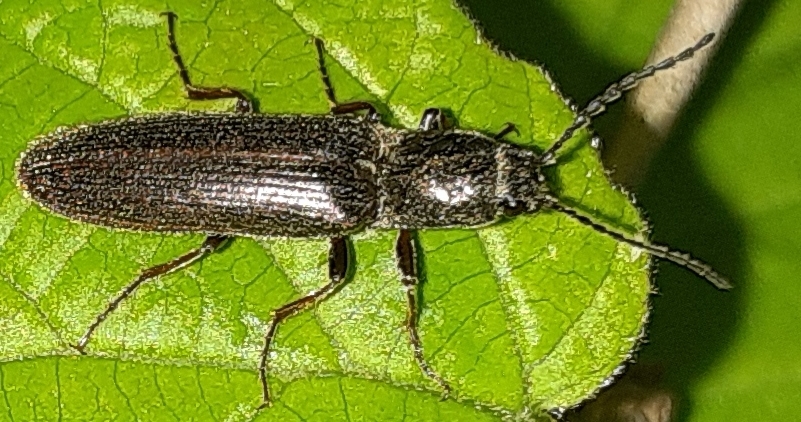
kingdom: Animalia
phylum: Arthropoda
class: Insecta
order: Coleoptera
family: Elateridae
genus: Sylvanelater
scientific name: Sylvanelater cylindriformis
